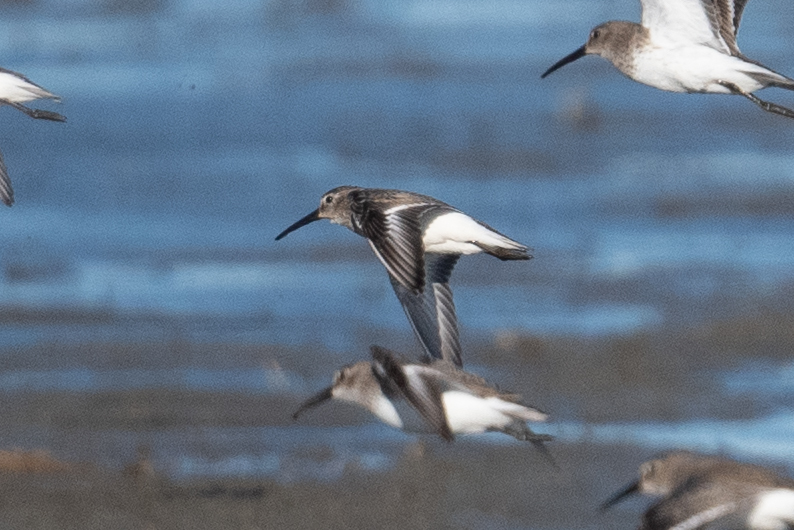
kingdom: Animalia
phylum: Chordata
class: Aves
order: Charadriiformes
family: Scolopacidae
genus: Calidris
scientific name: Calidris alpina
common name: Dunlin
